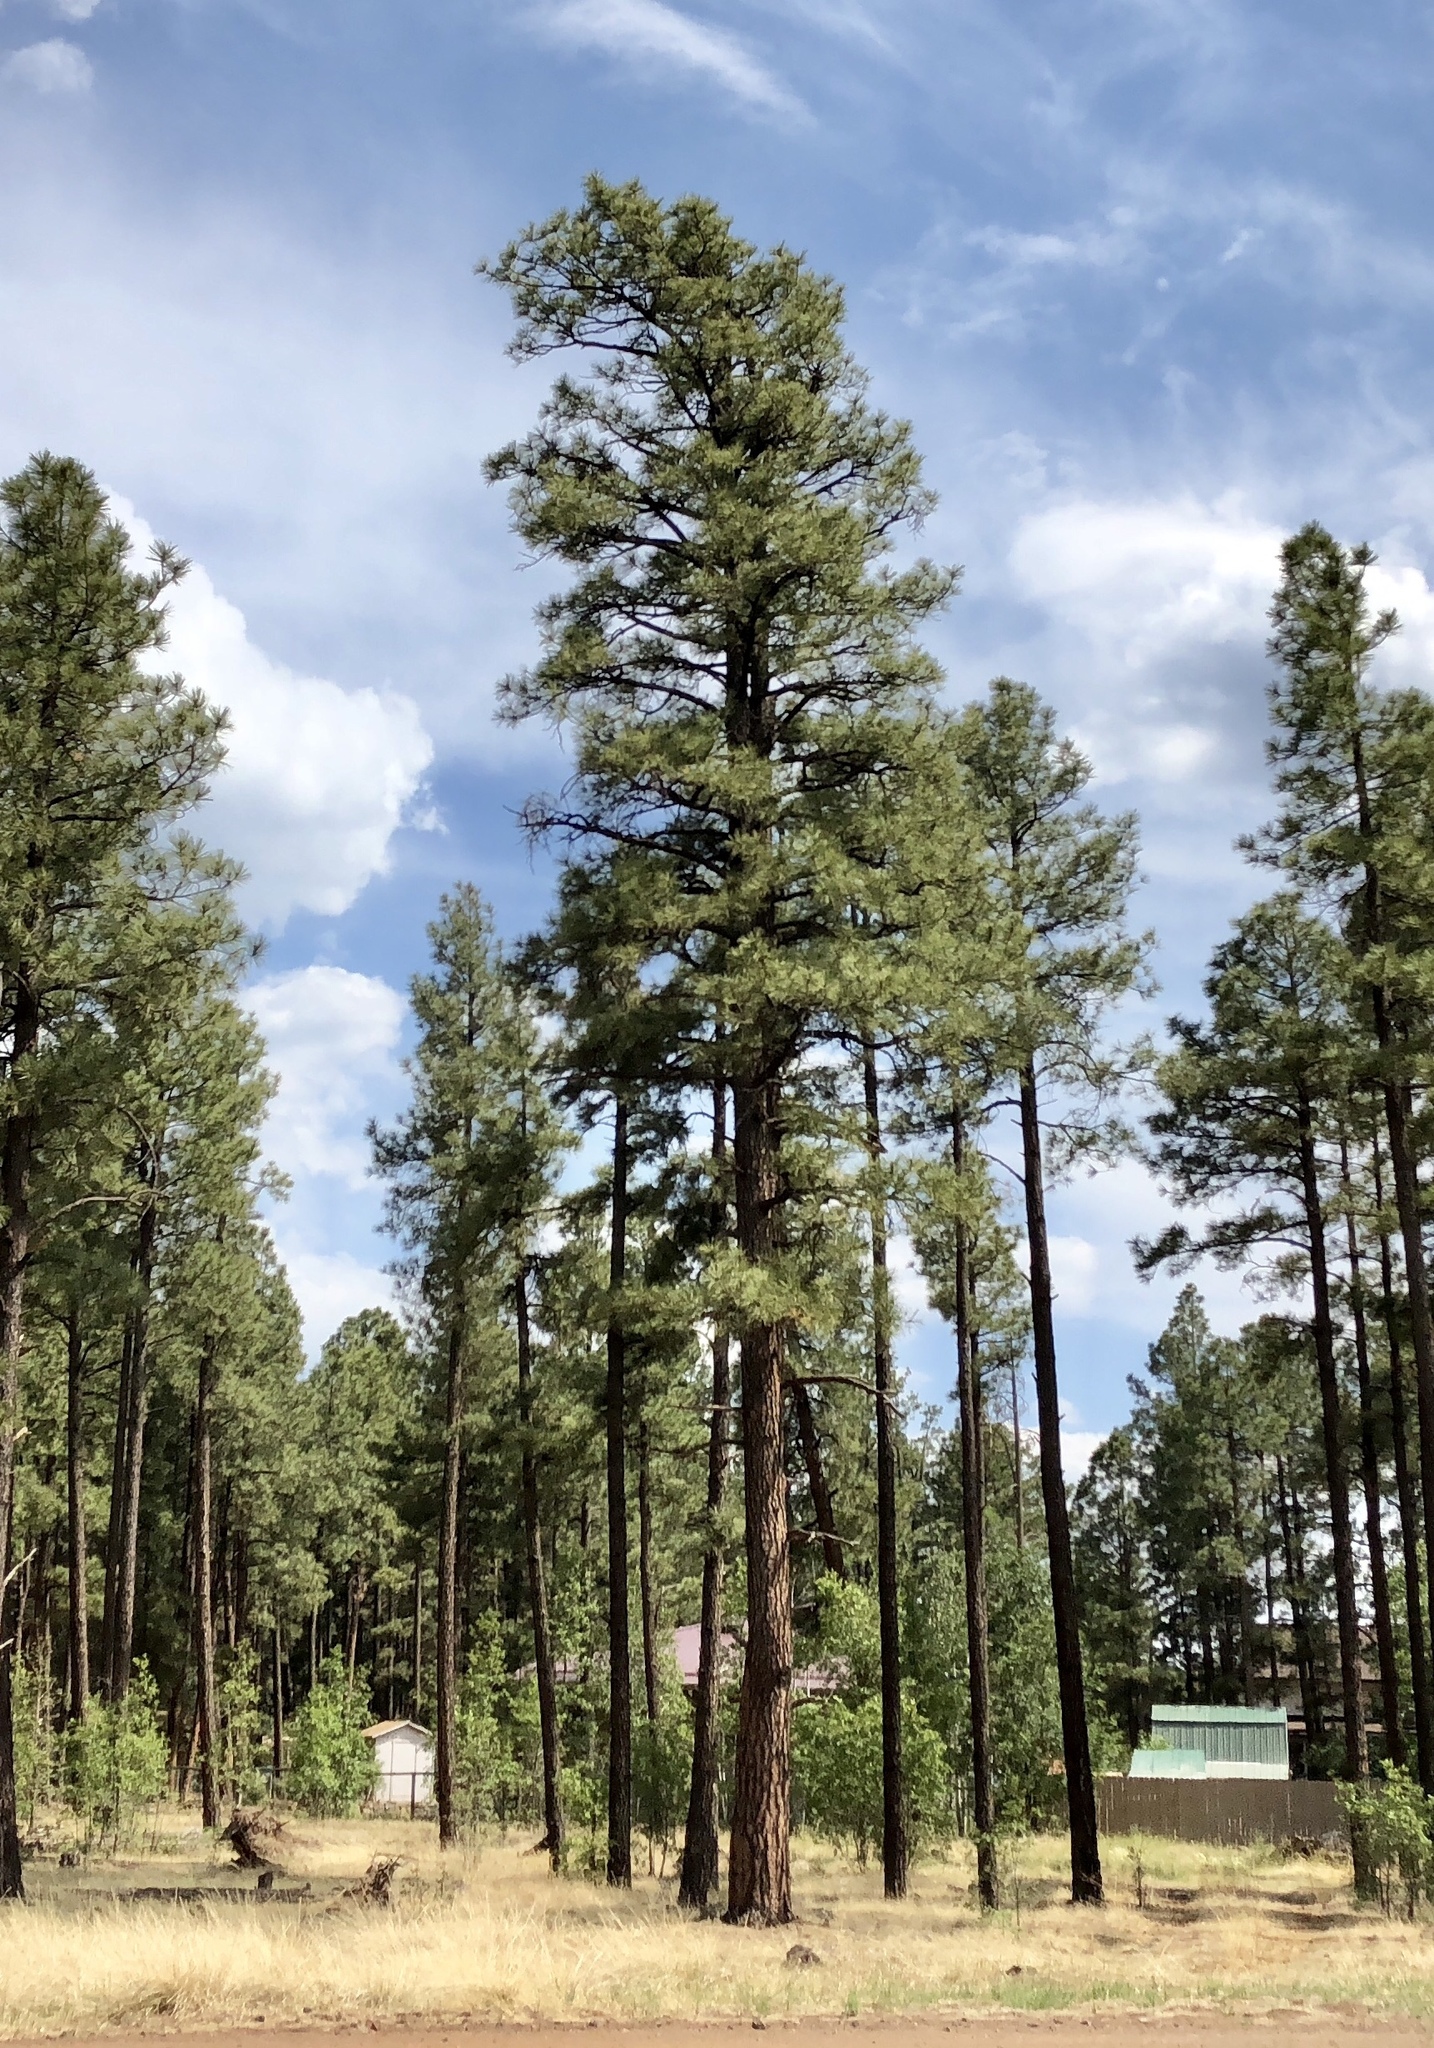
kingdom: Plantae
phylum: Tracheophyta
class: Pinopsida
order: Pinales
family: Pinaceae
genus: Pinus
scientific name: Pinus ponderosa
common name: Western yellow-pine
